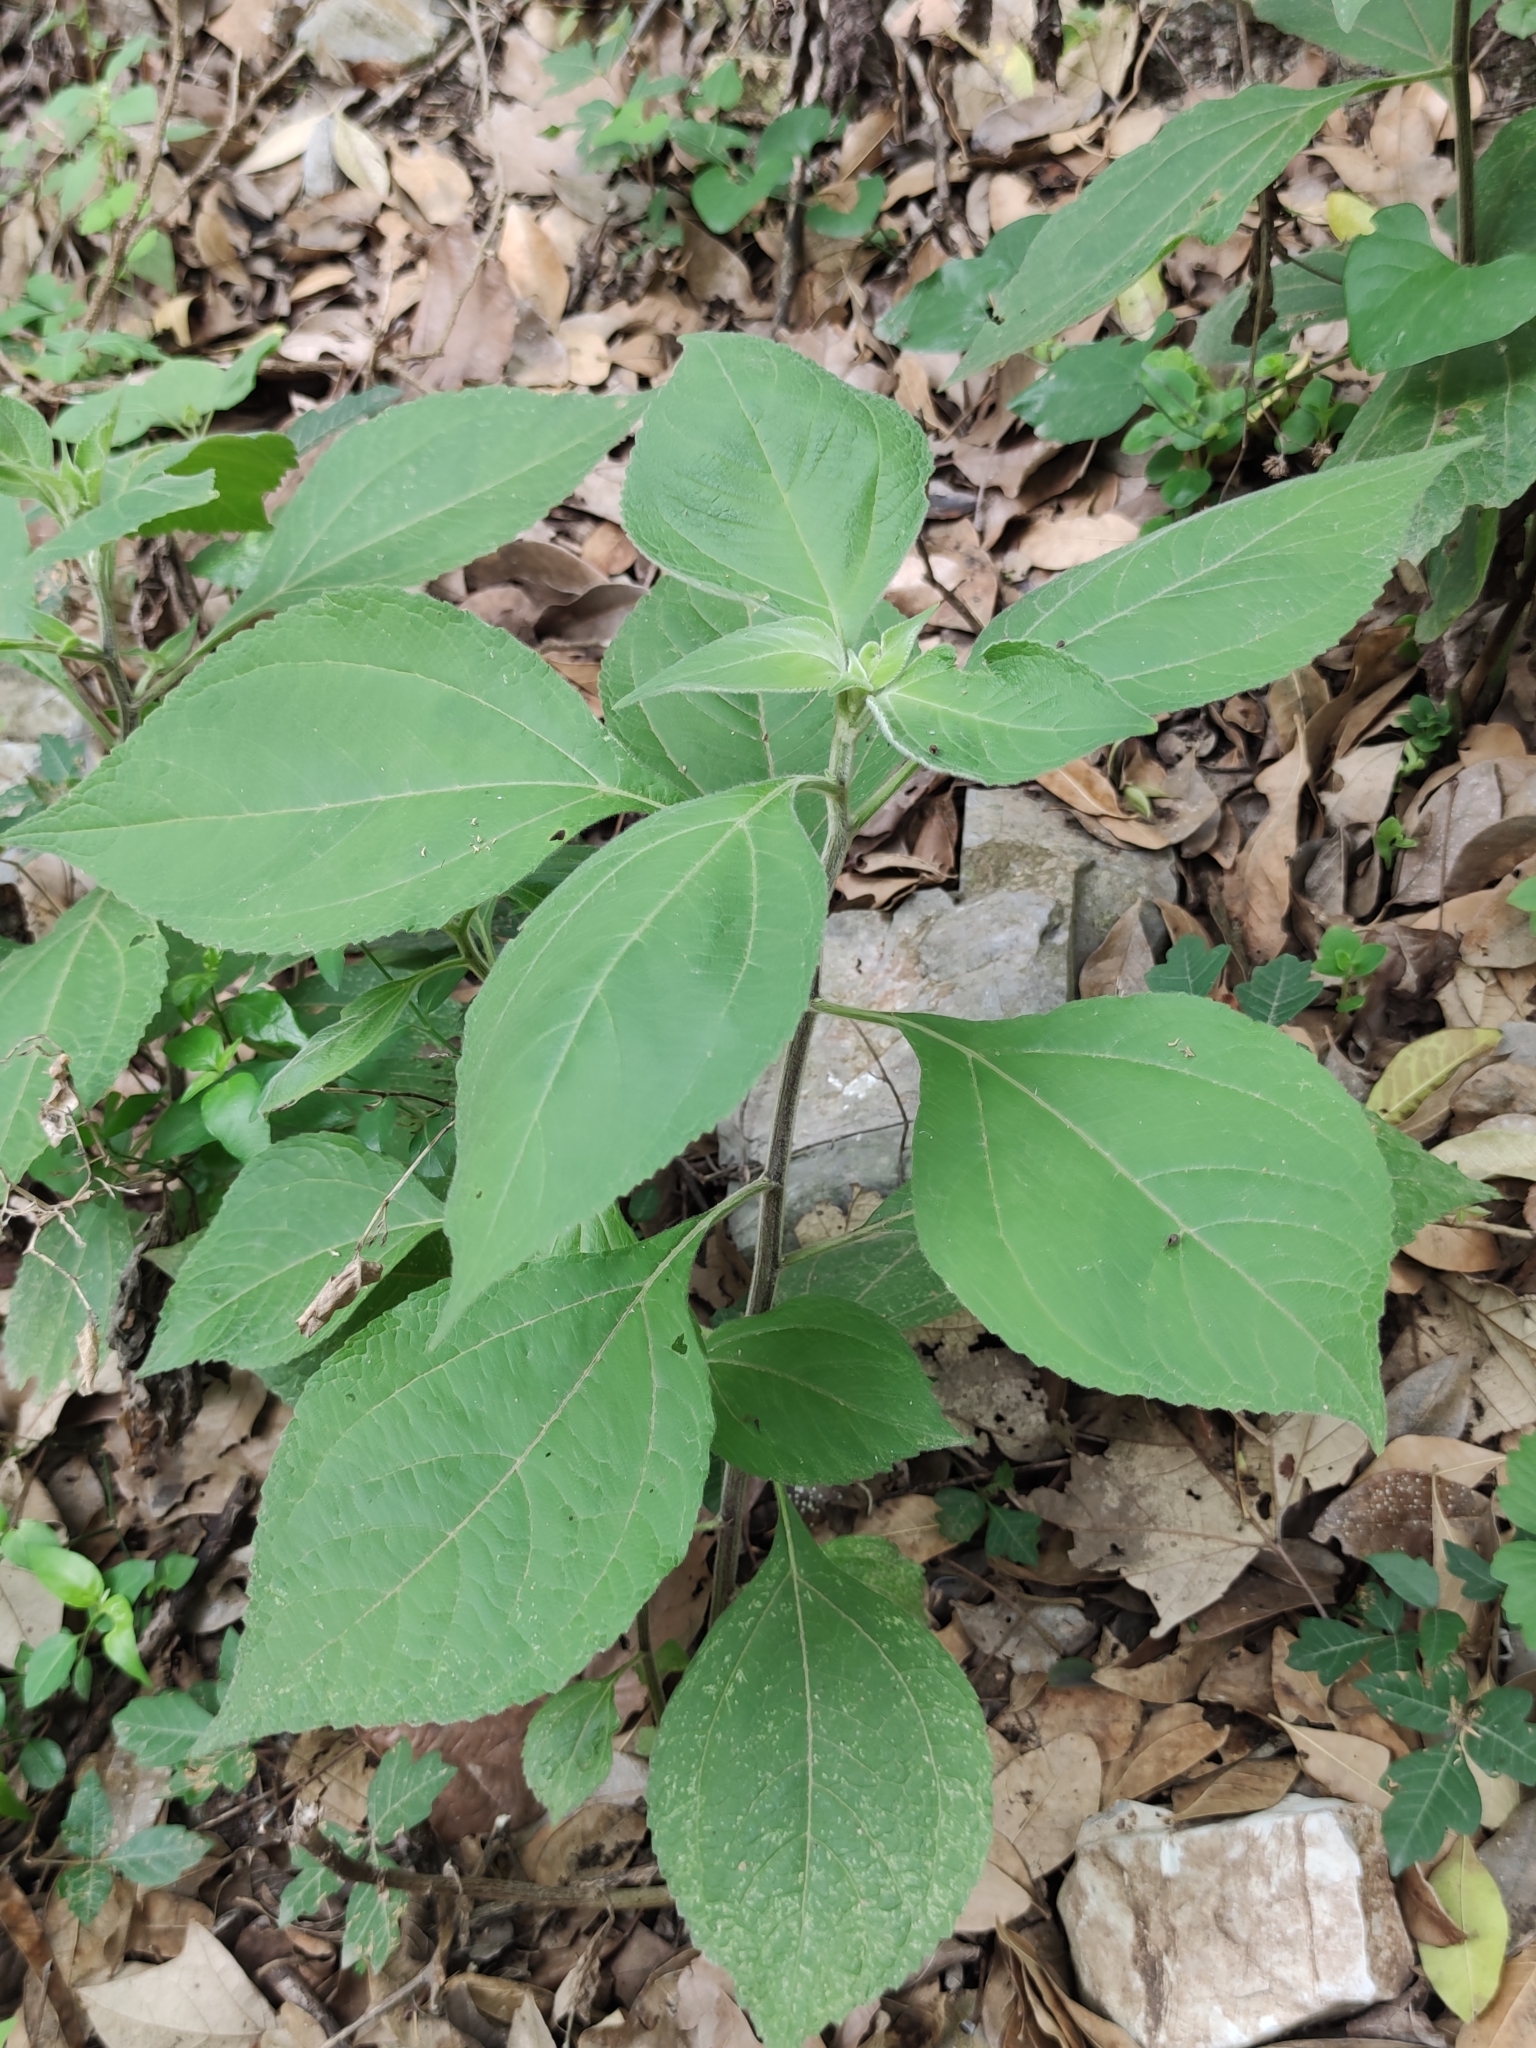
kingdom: Plantae
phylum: Tracheophyta
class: Magnoliopsida
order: Asterales
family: Asteraceae
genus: Greenmaniella
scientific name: Greenmaniella resinosa
